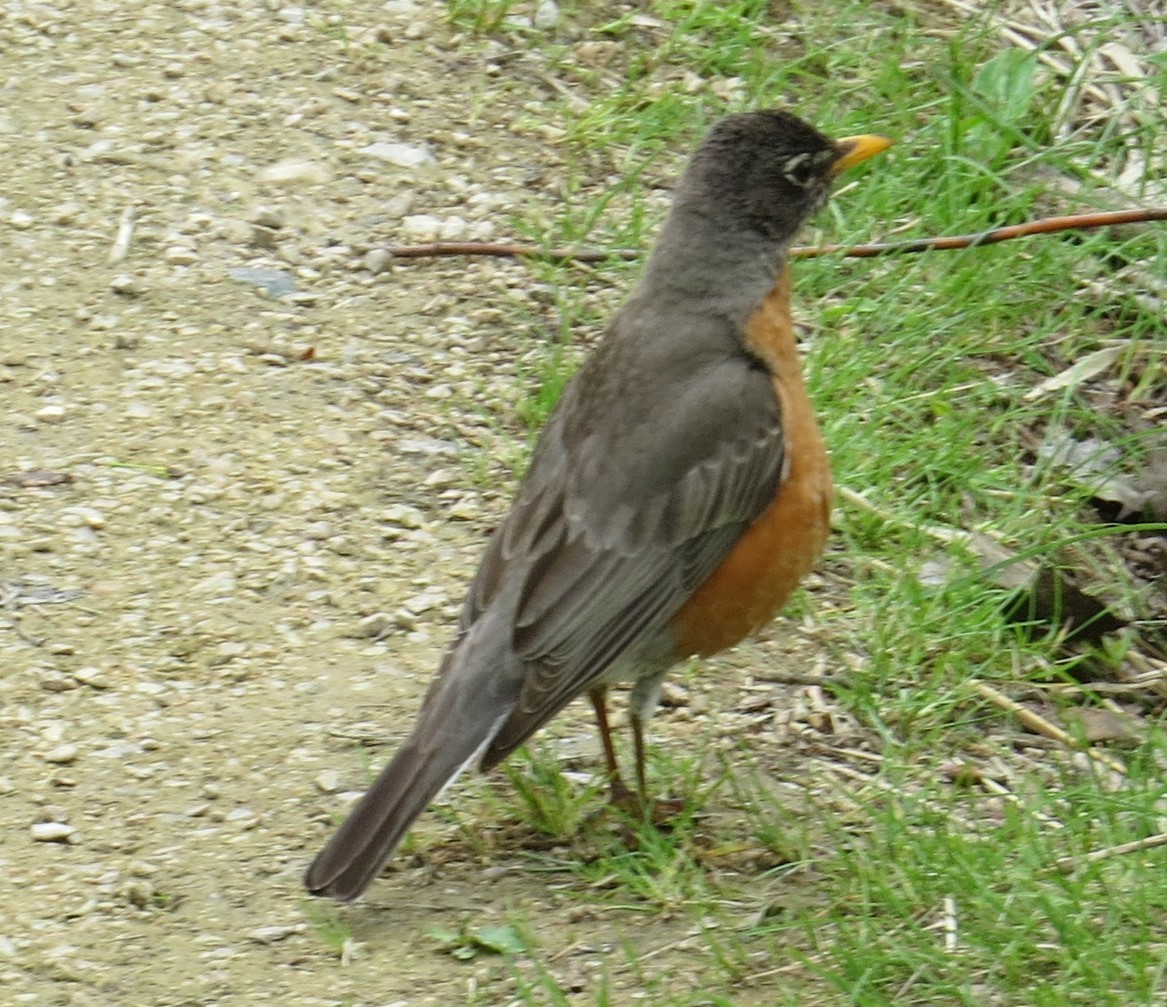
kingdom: Animalia
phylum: Chordata
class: Aves
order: Passeriformes
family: Turdidae
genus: Turdus
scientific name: Turdus migratorius
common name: American robin
